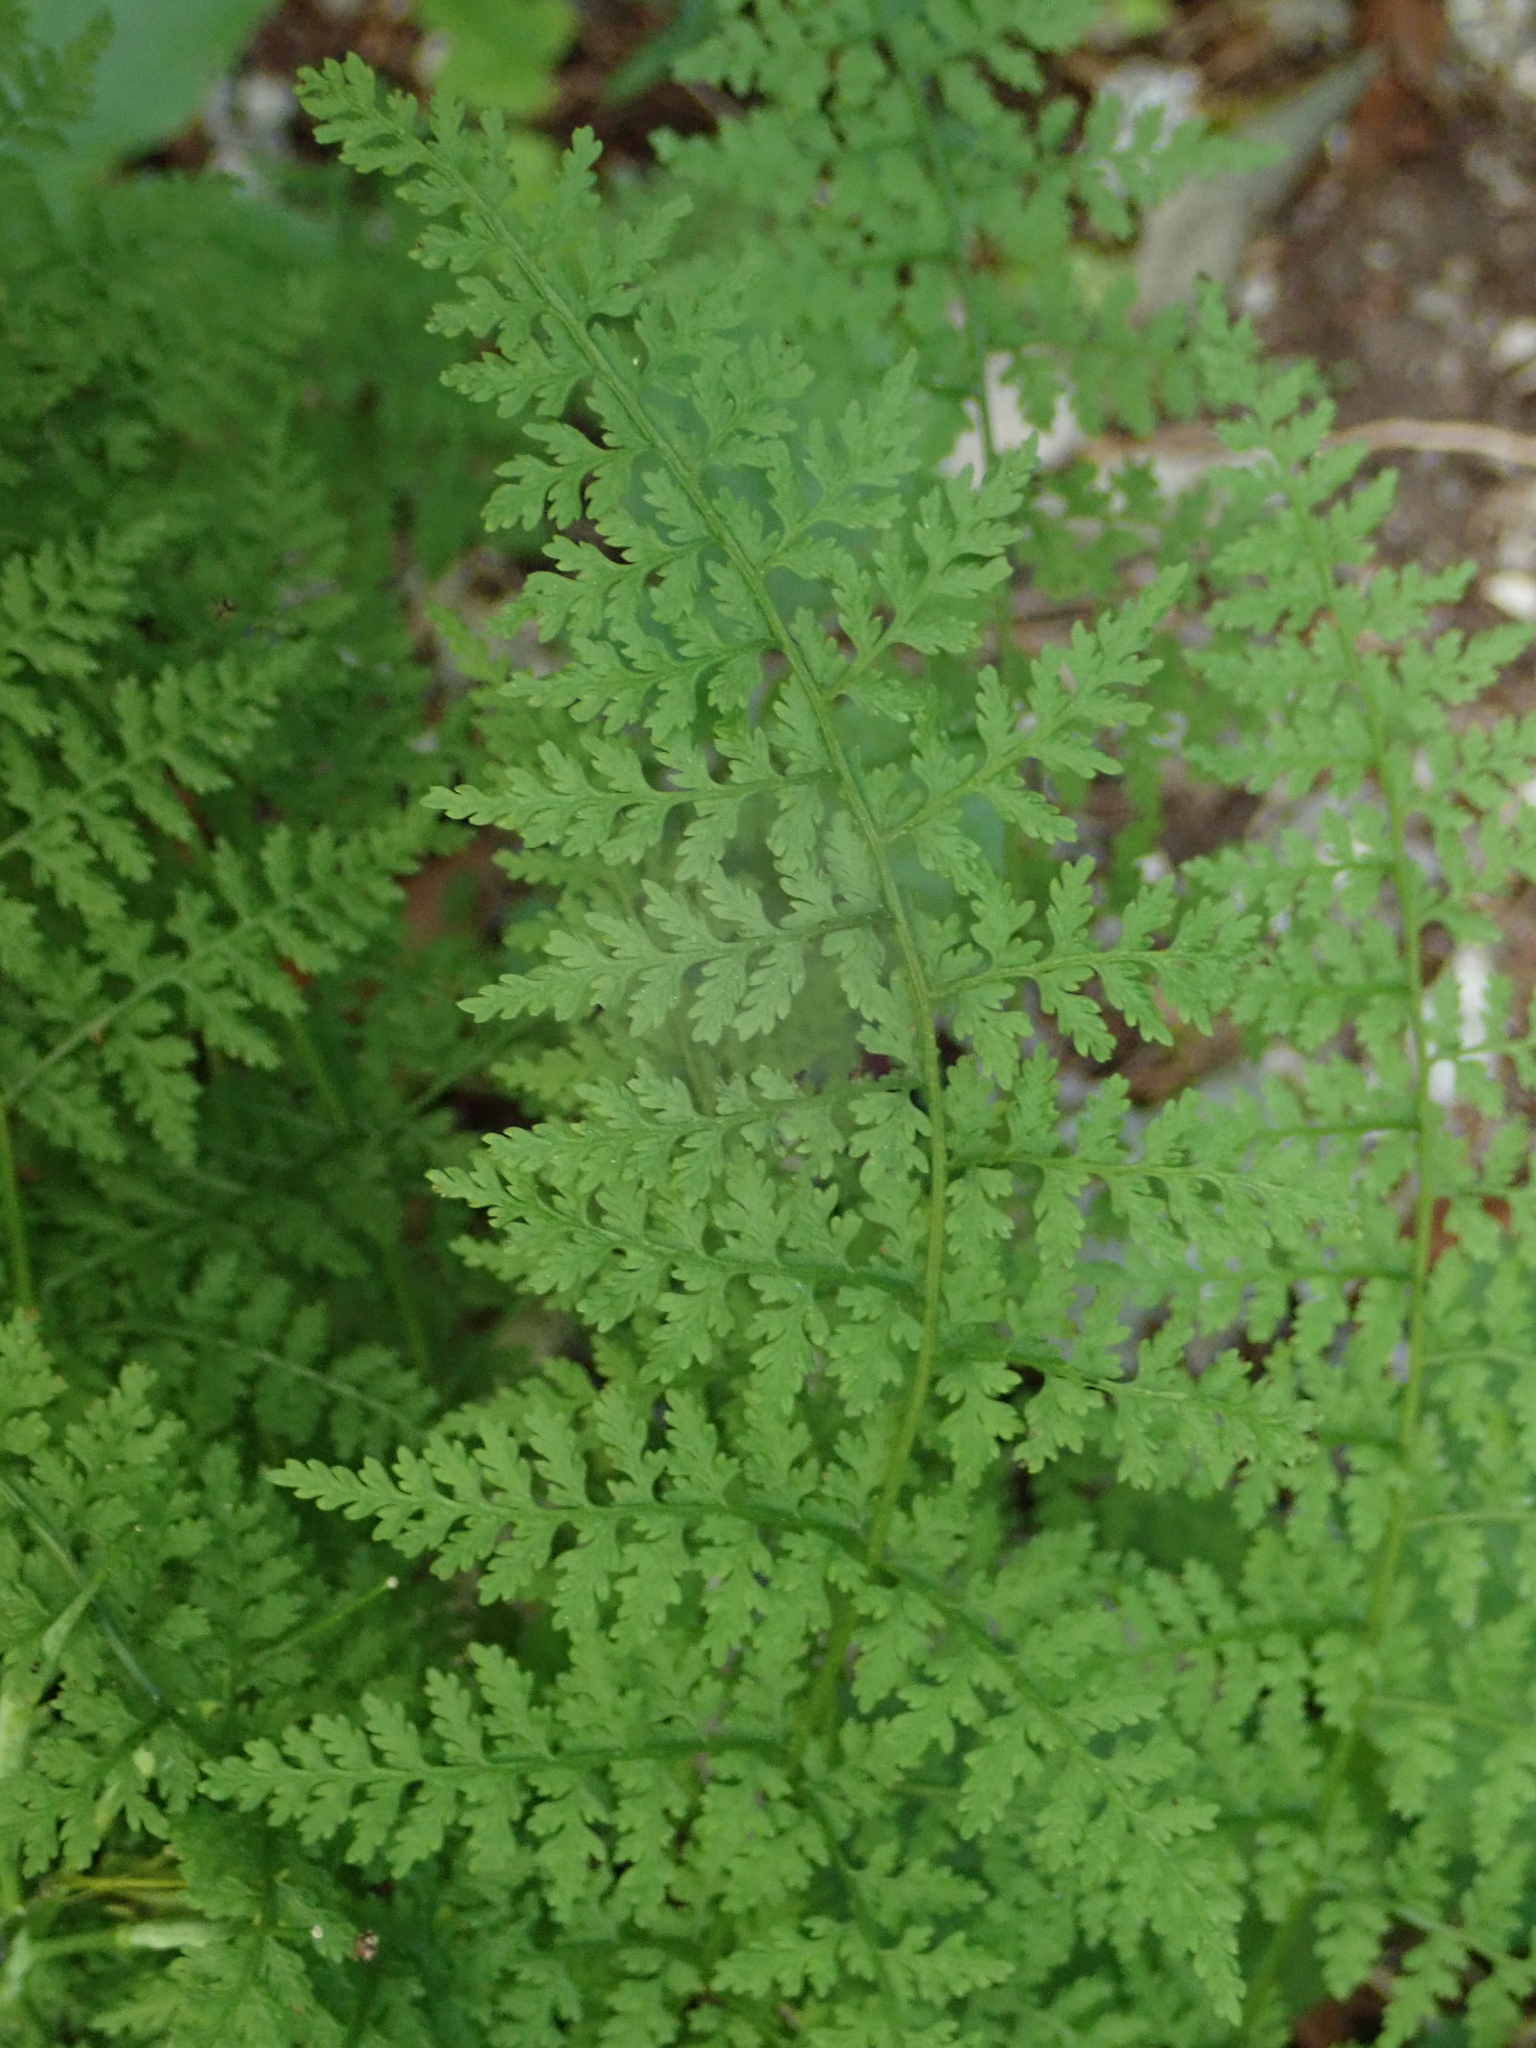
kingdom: Plantae
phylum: Tracheophyta
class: Polypodiopsida
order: Polypodiales
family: Cystopteridaceae
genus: Cystopteris
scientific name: Cystopteris fragilis
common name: Brittle bladder fern
